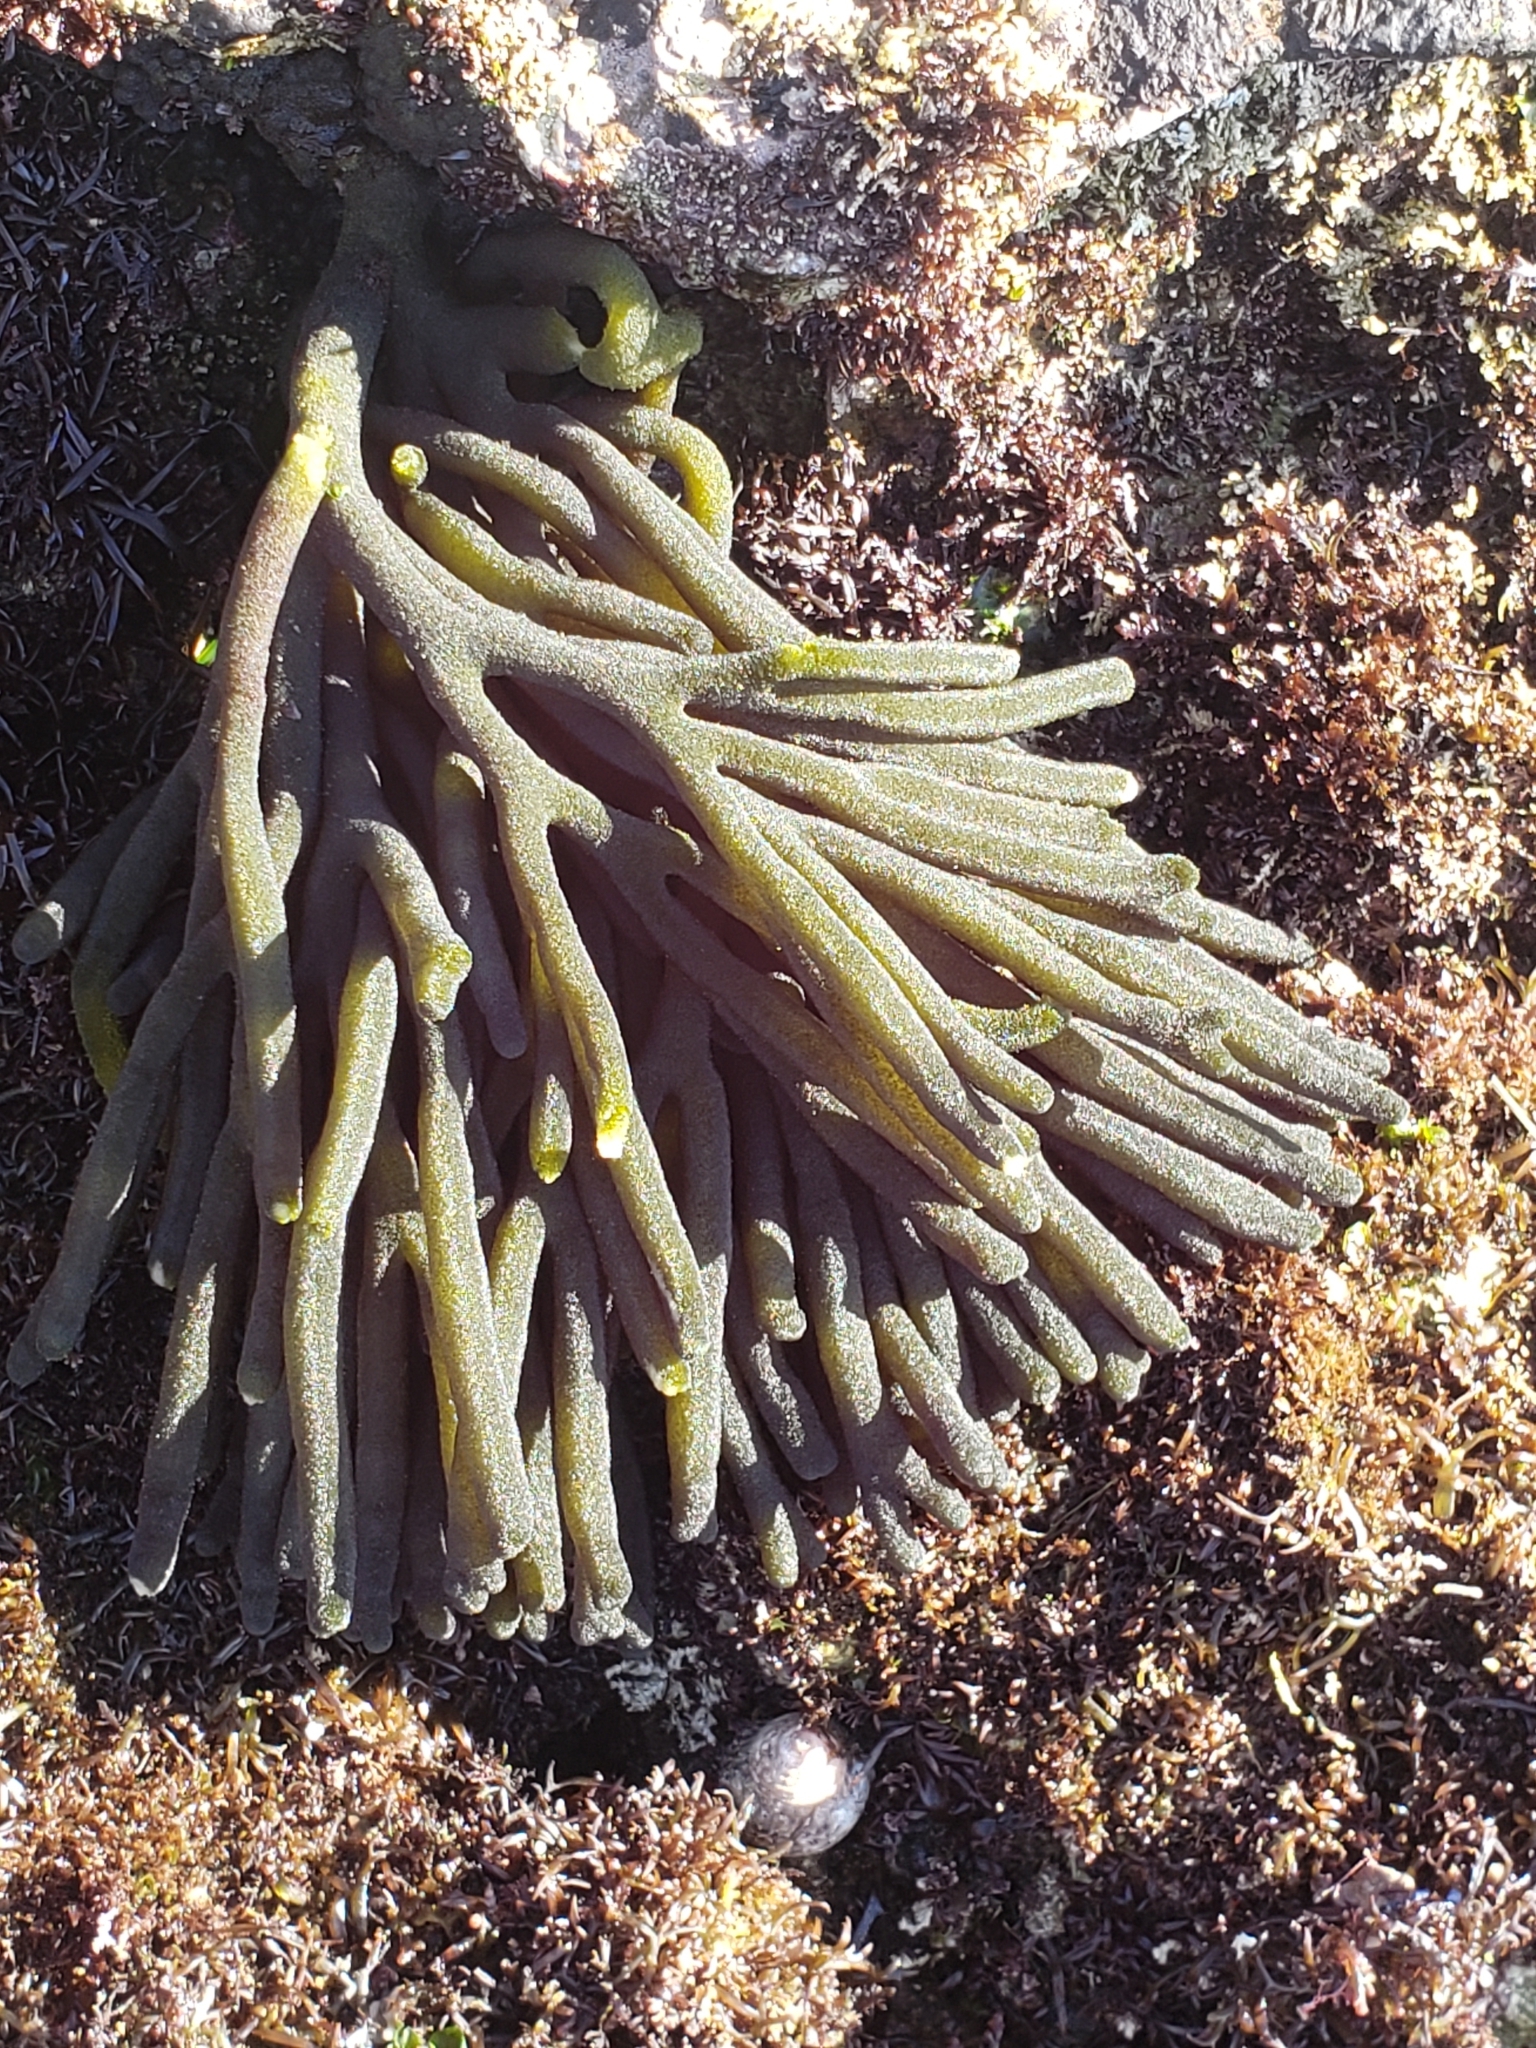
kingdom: Plantae
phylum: Chlorophyta
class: Ulvophyceae
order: Bryopsidales
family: Codiaceae
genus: Codium
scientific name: Codium fragile
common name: Dead man's fingers
